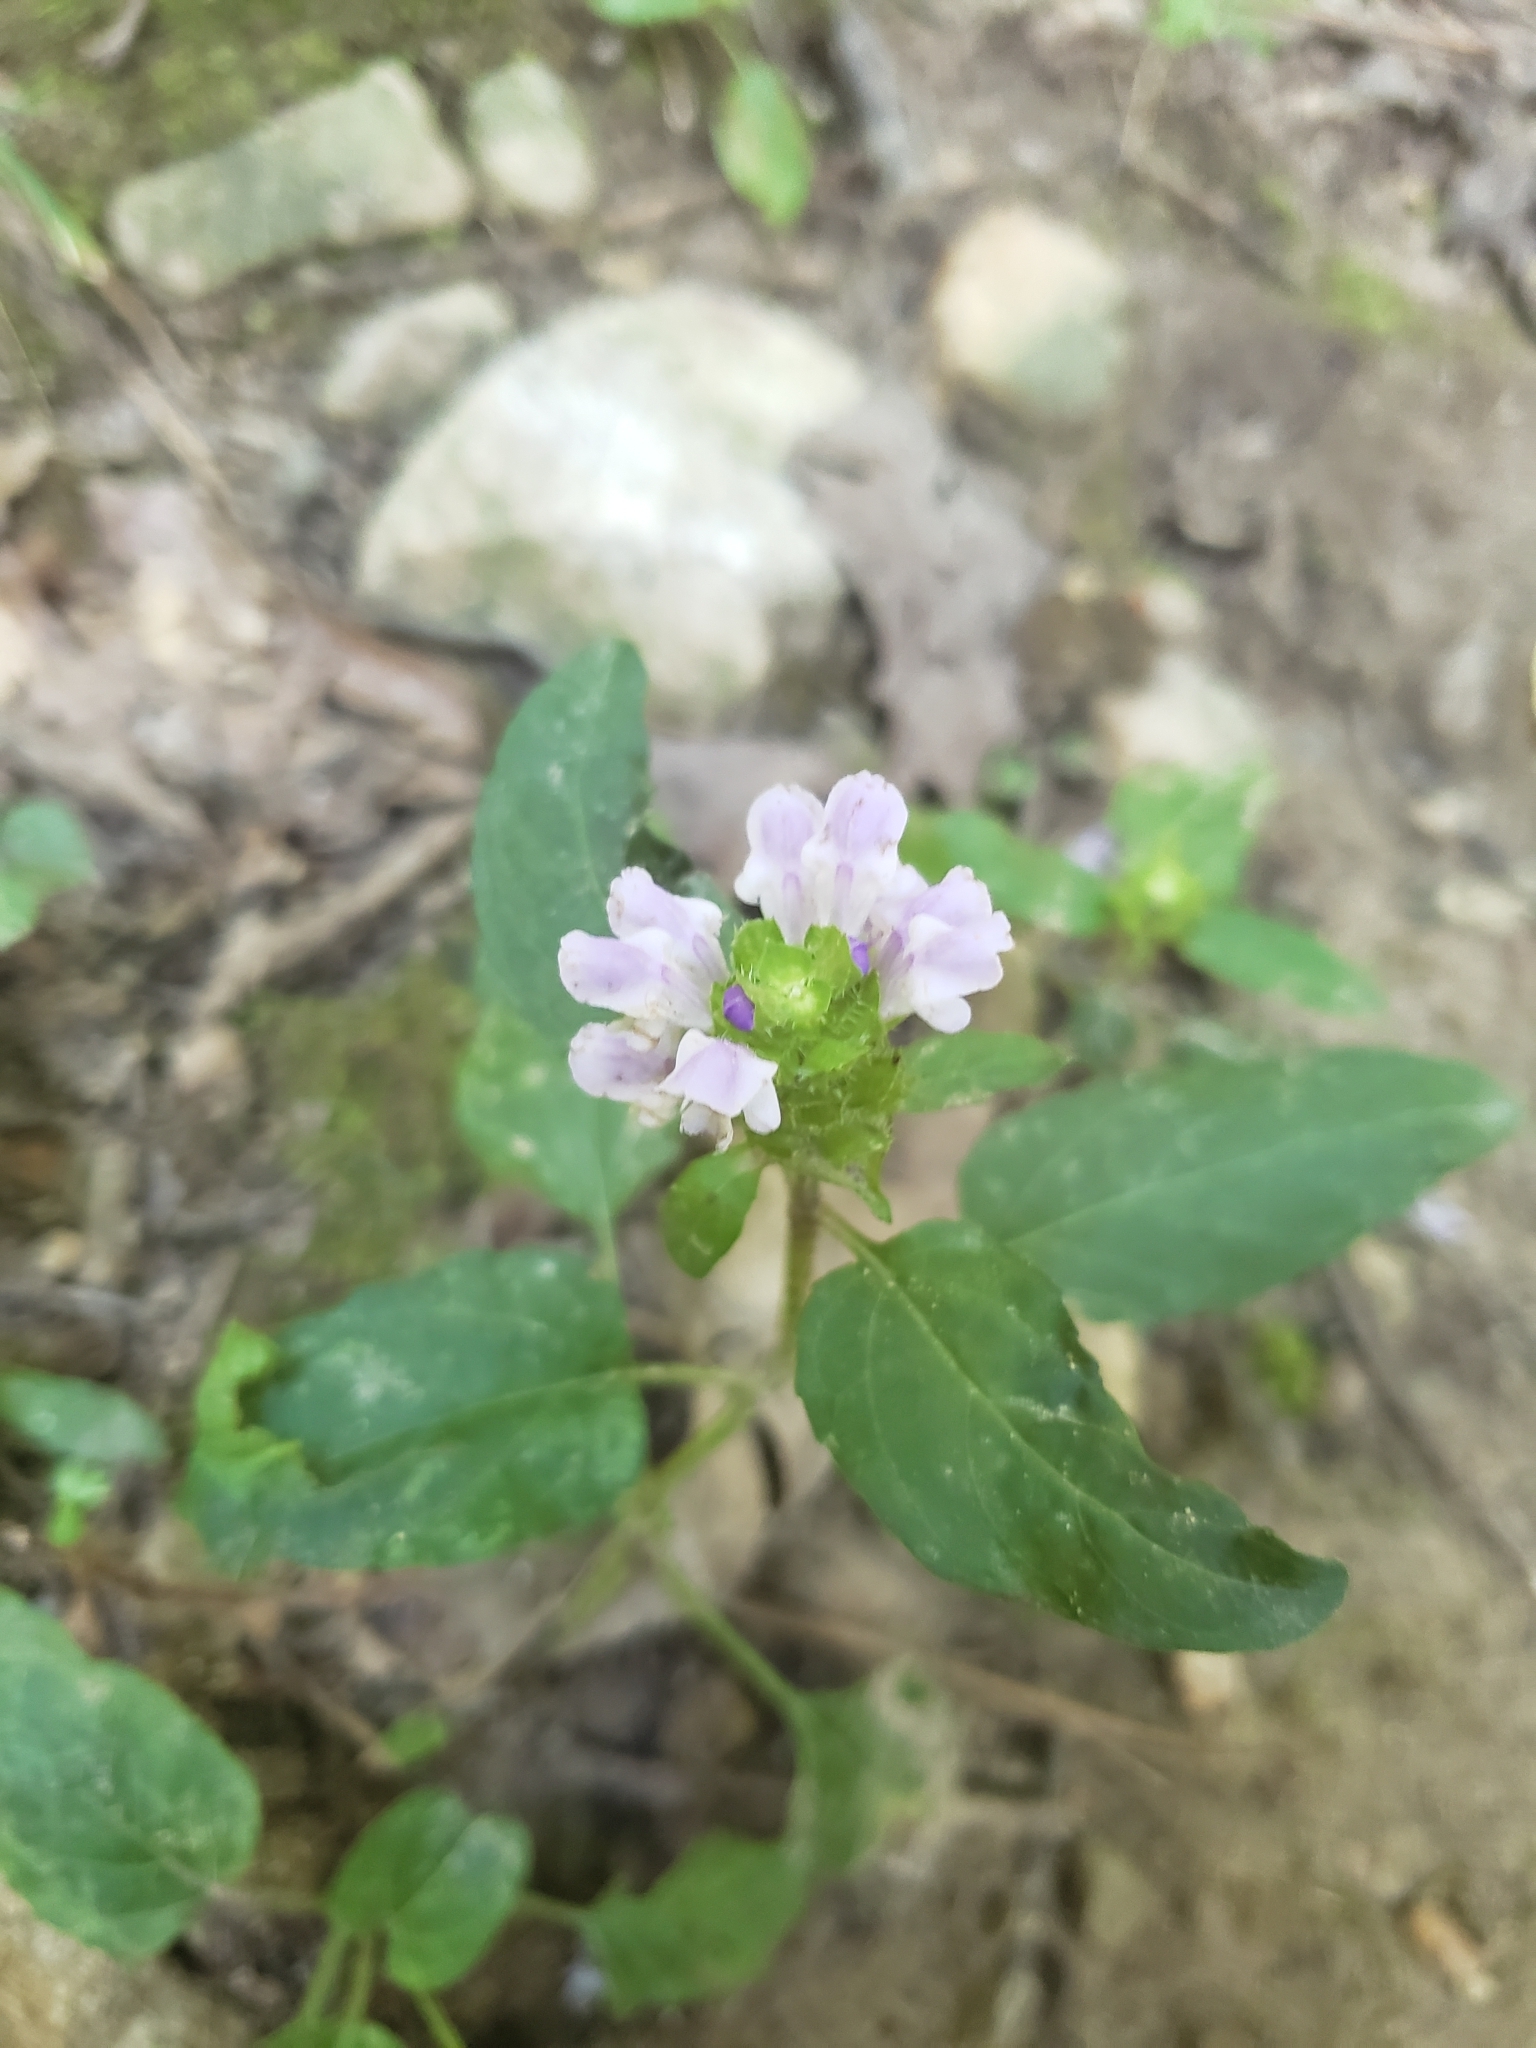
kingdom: Plantae
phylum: Tracheophyta
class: Magnoliopsida
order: Lamiales
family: Lamiaceae
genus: Prunella
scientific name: Prunella vulgaris
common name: Heal-all
